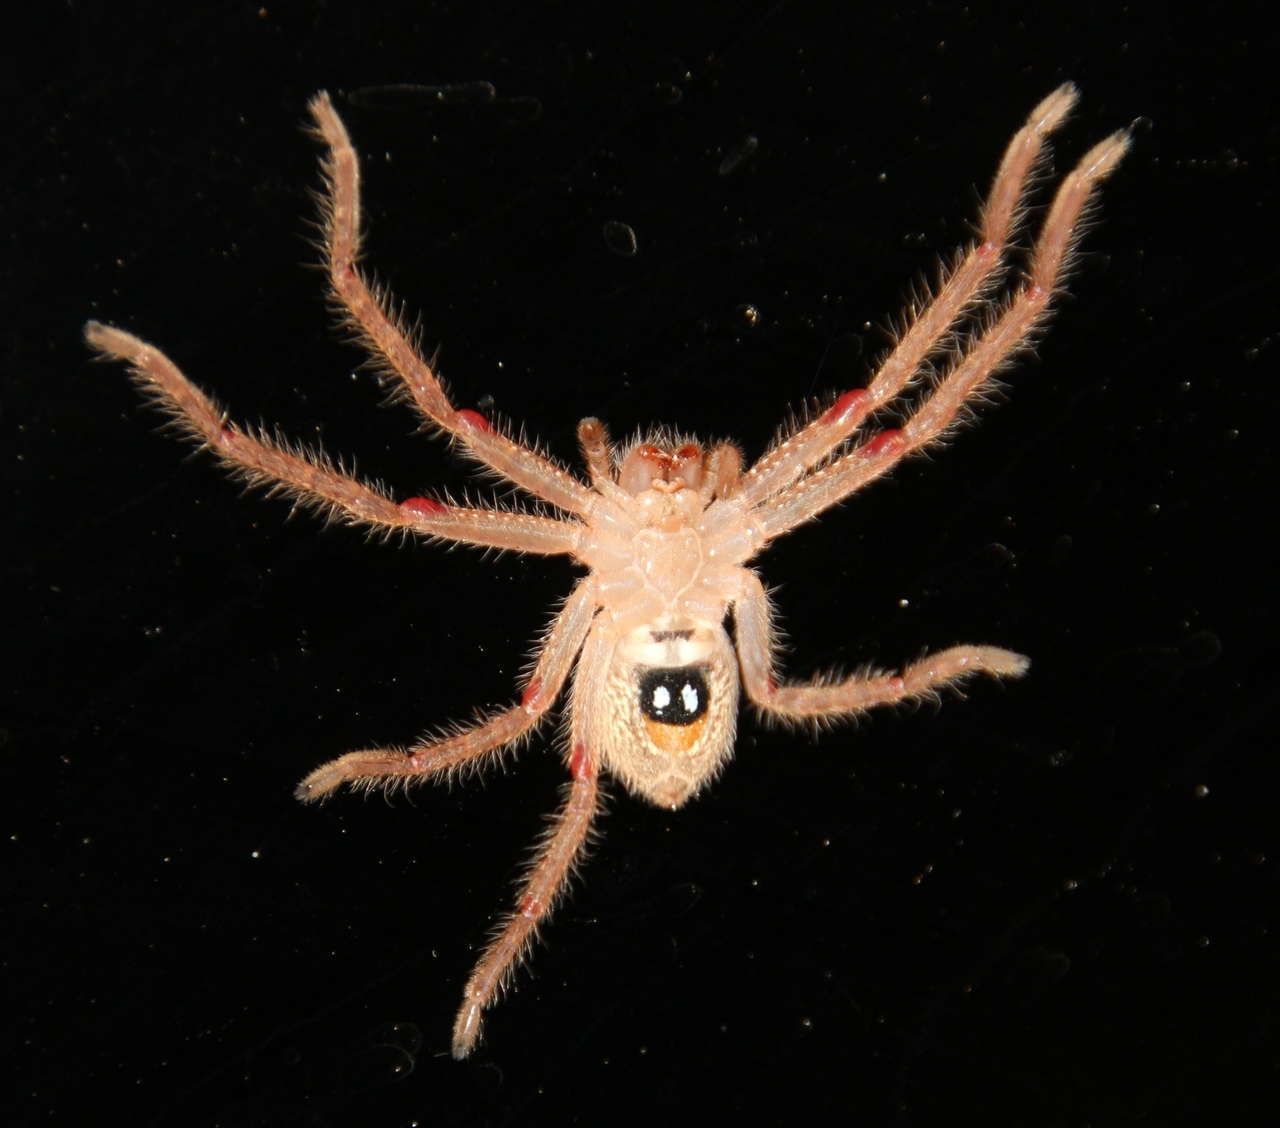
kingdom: Animalia
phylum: Arthropoda
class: Arachnida
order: Araneae
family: Sparassidae
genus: Neosparassus
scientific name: Neosparassus diana
